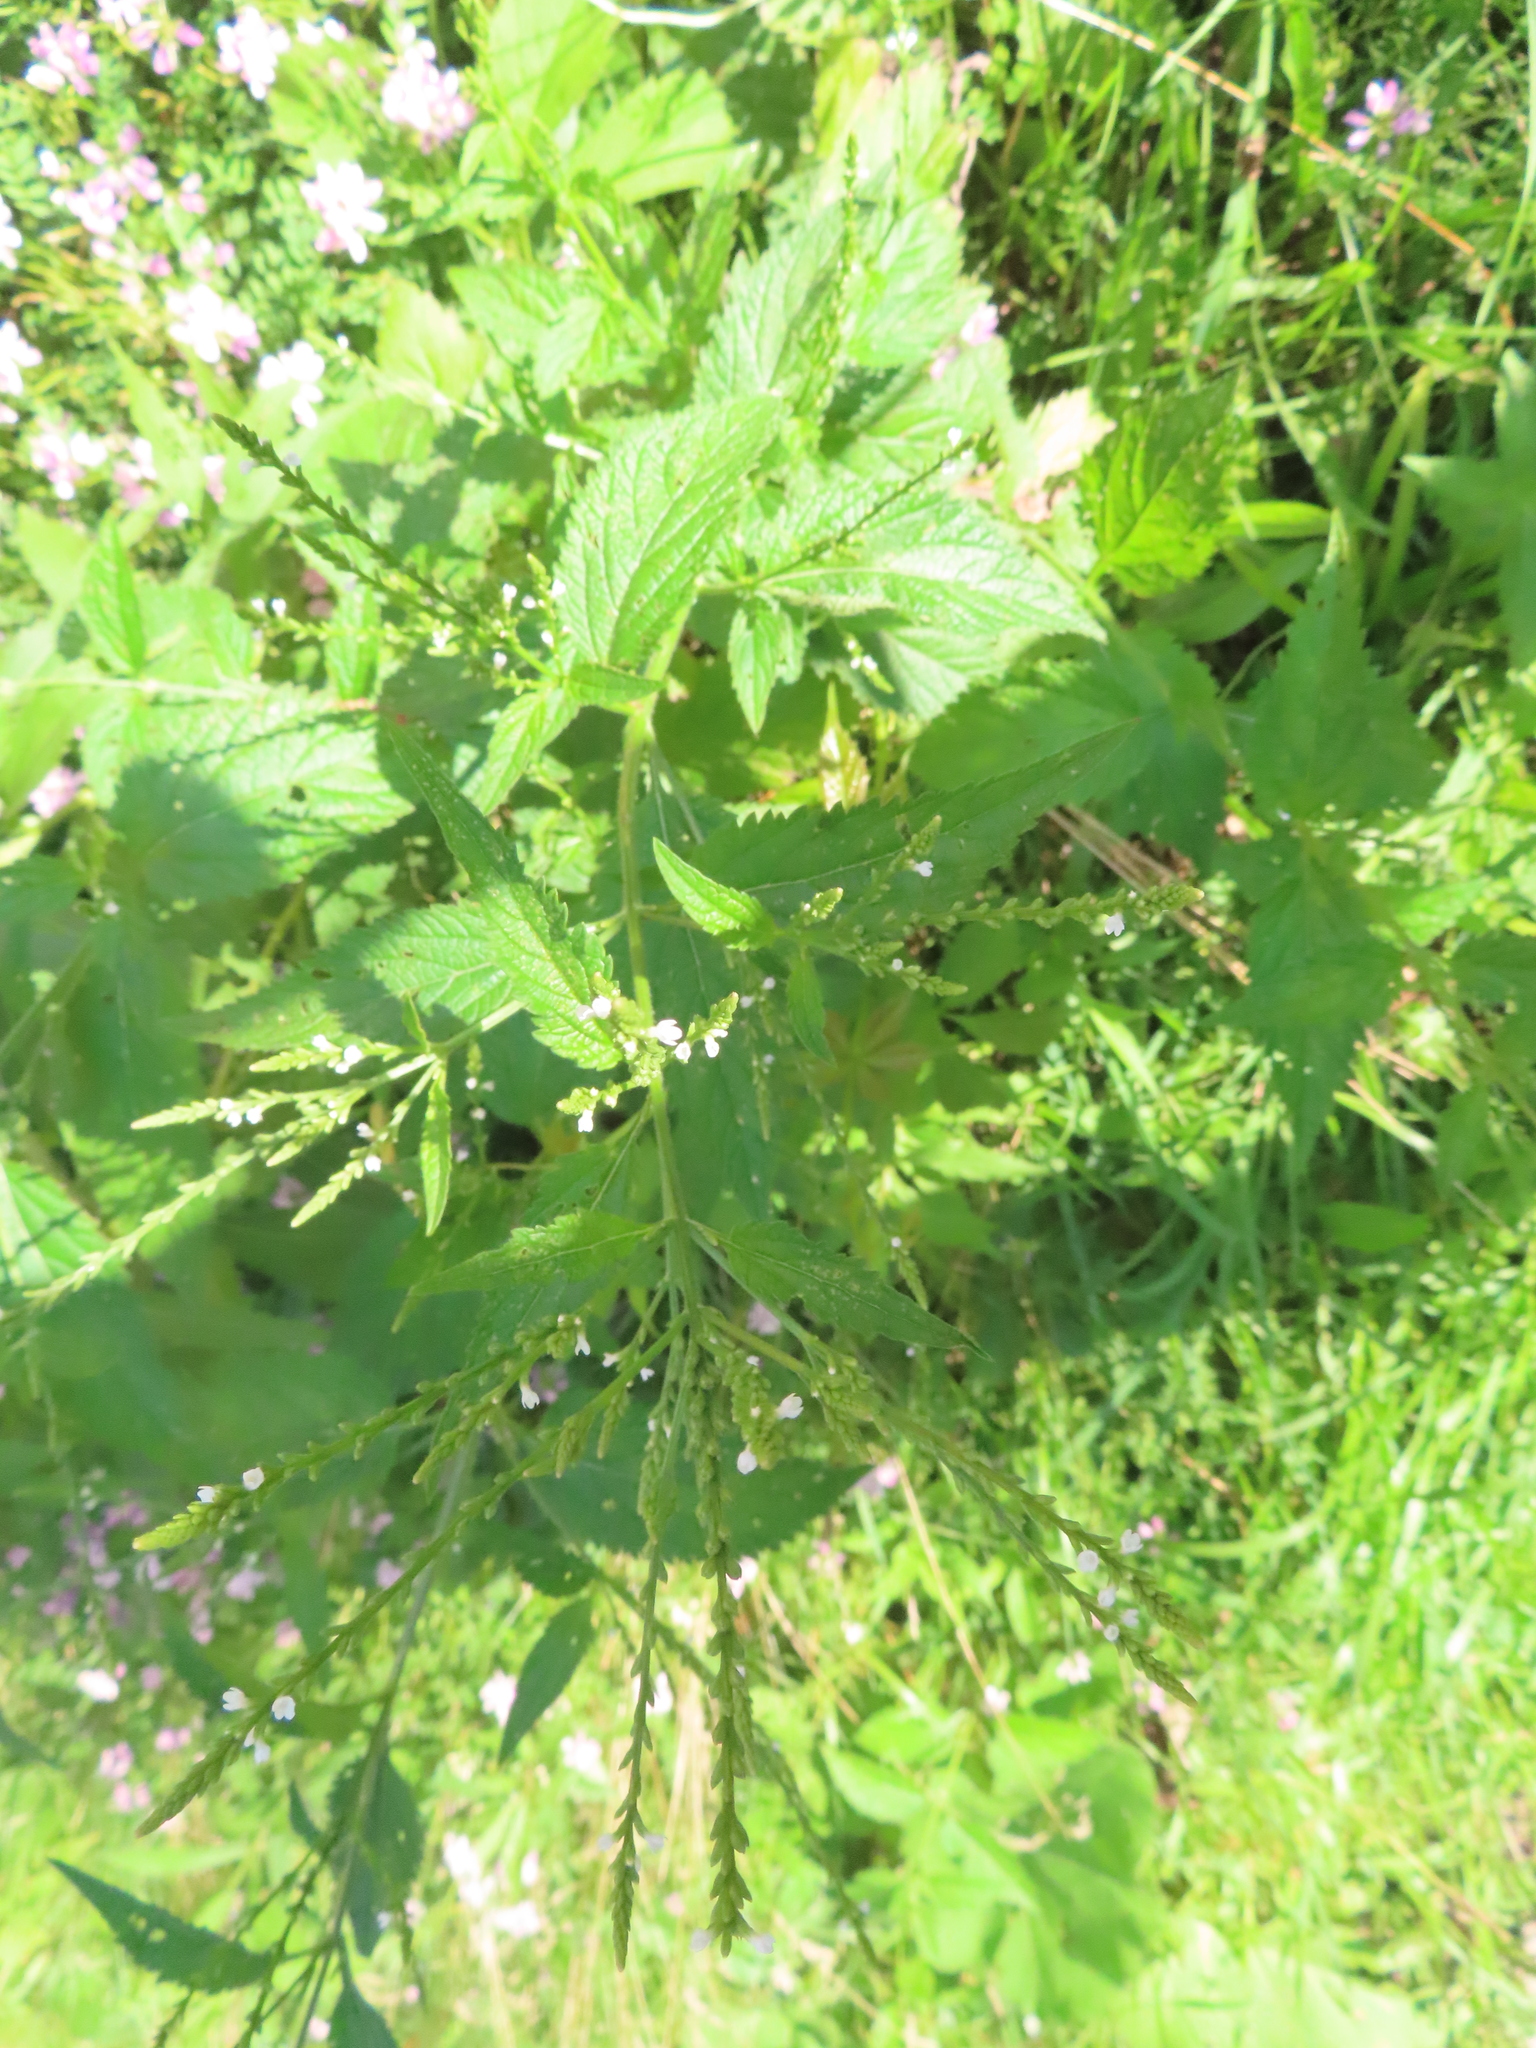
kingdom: Plantae
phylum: Tracheophyta
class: Magnoliopsida
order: Lamiales
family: Verbenaceae
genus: Verbena
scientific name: Verbena urticifolia
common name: Nettle-leaved vervain
